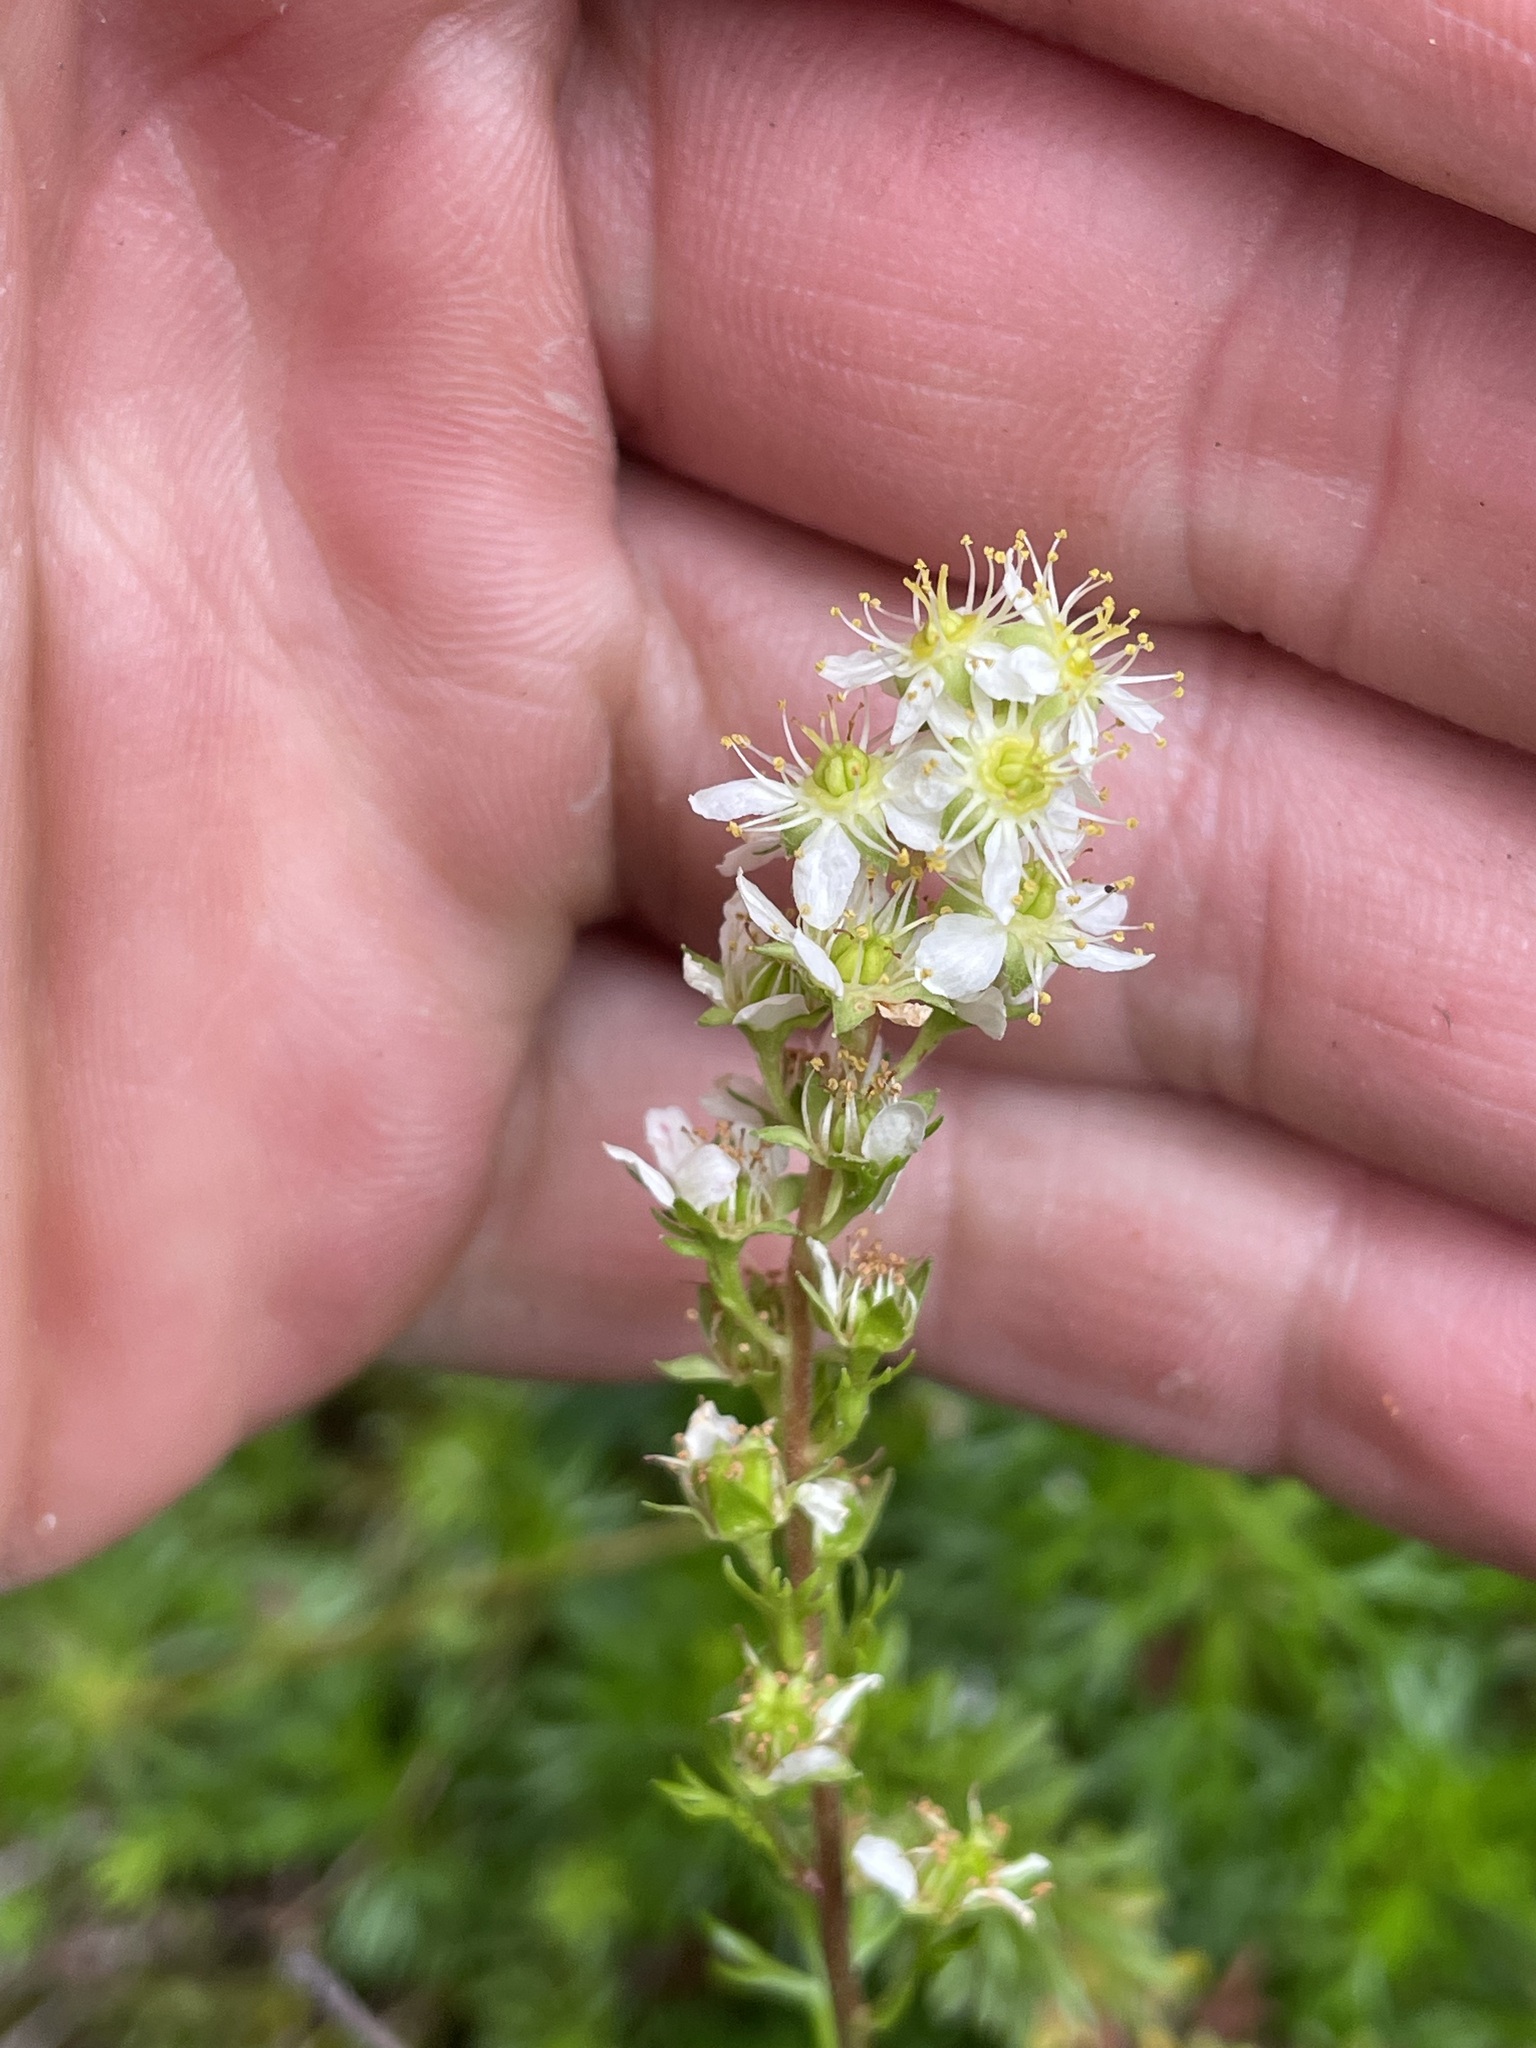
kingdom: Plantae
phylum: Tracheophyta
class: Magnoliopsida
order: Rosales
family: Rosaceae
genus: Luetkea
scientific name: Luetkea pectinata
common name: Partridgefoot
